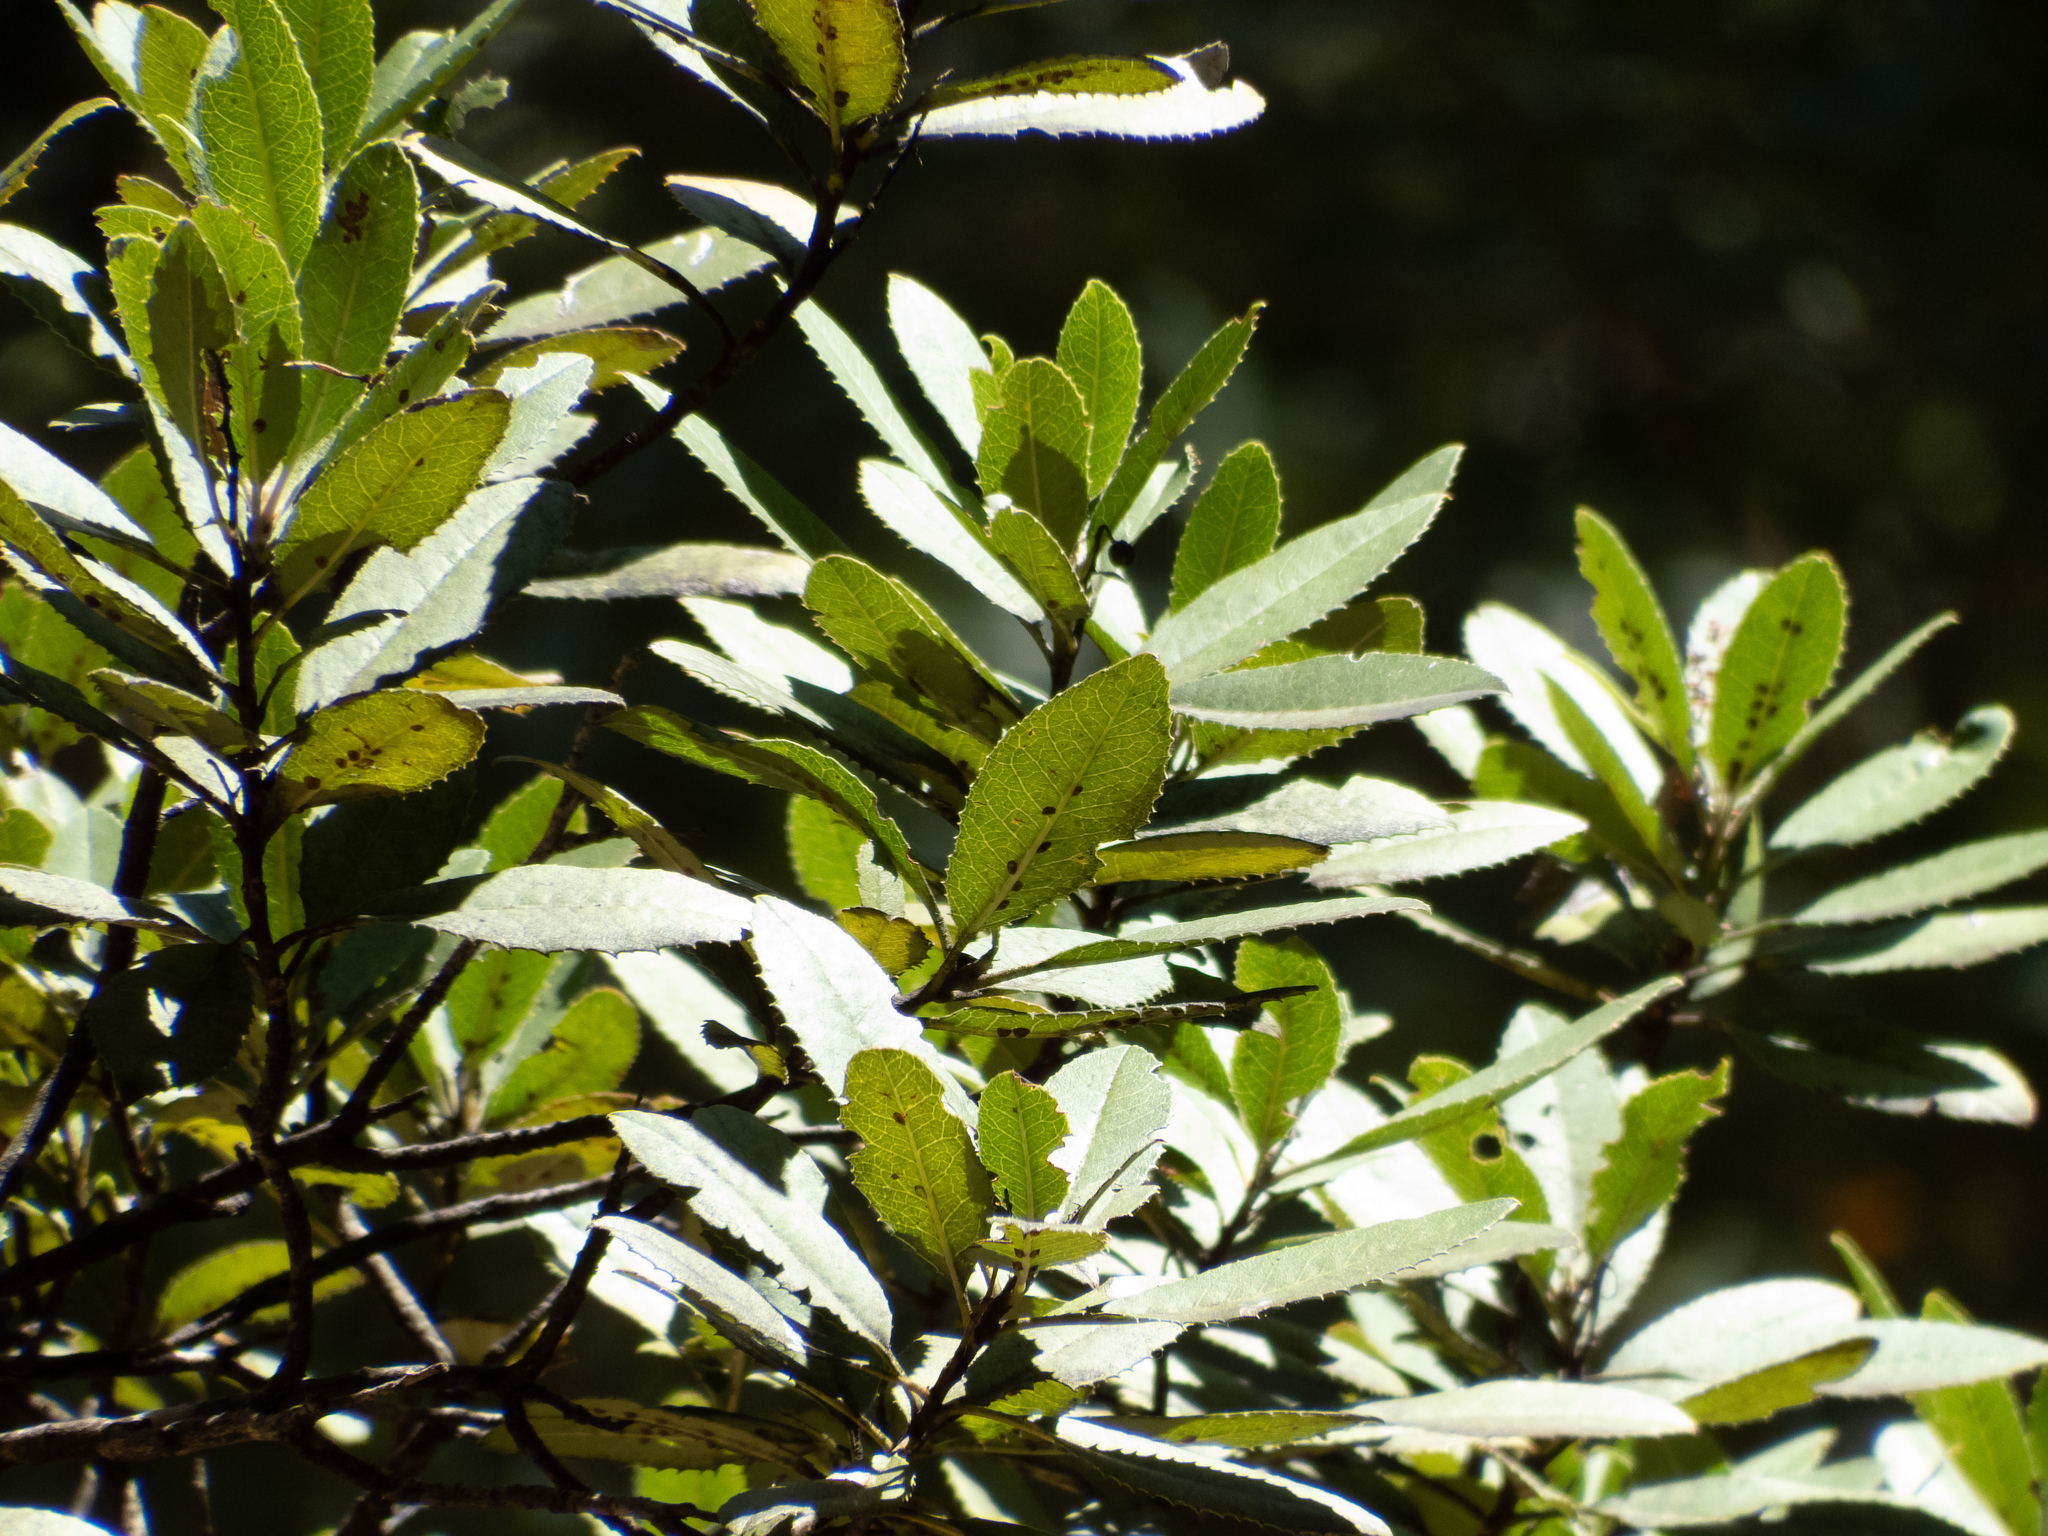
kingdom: Plantae
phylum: Tracheophyta
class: Magnoliopsida
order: Rosales
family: Rosaceae
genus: Heteromeles
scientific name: Heteromeles arbutifolia
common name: California-holly
